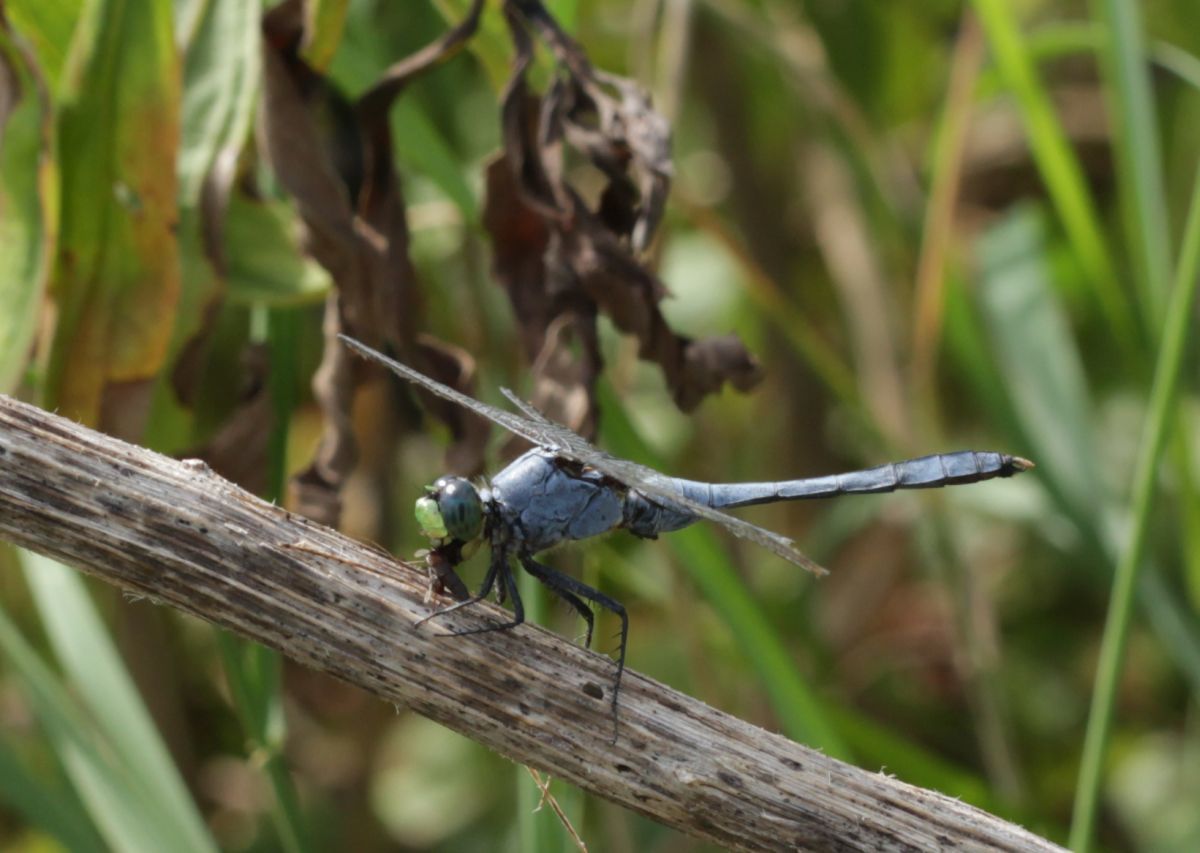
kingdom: Animalia
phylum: Arthropoda
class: Insecta
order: Odonata
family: Libellulidae
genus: Erythemis
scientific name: Erythemis simplicicollis
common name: Eastern pondhawk
